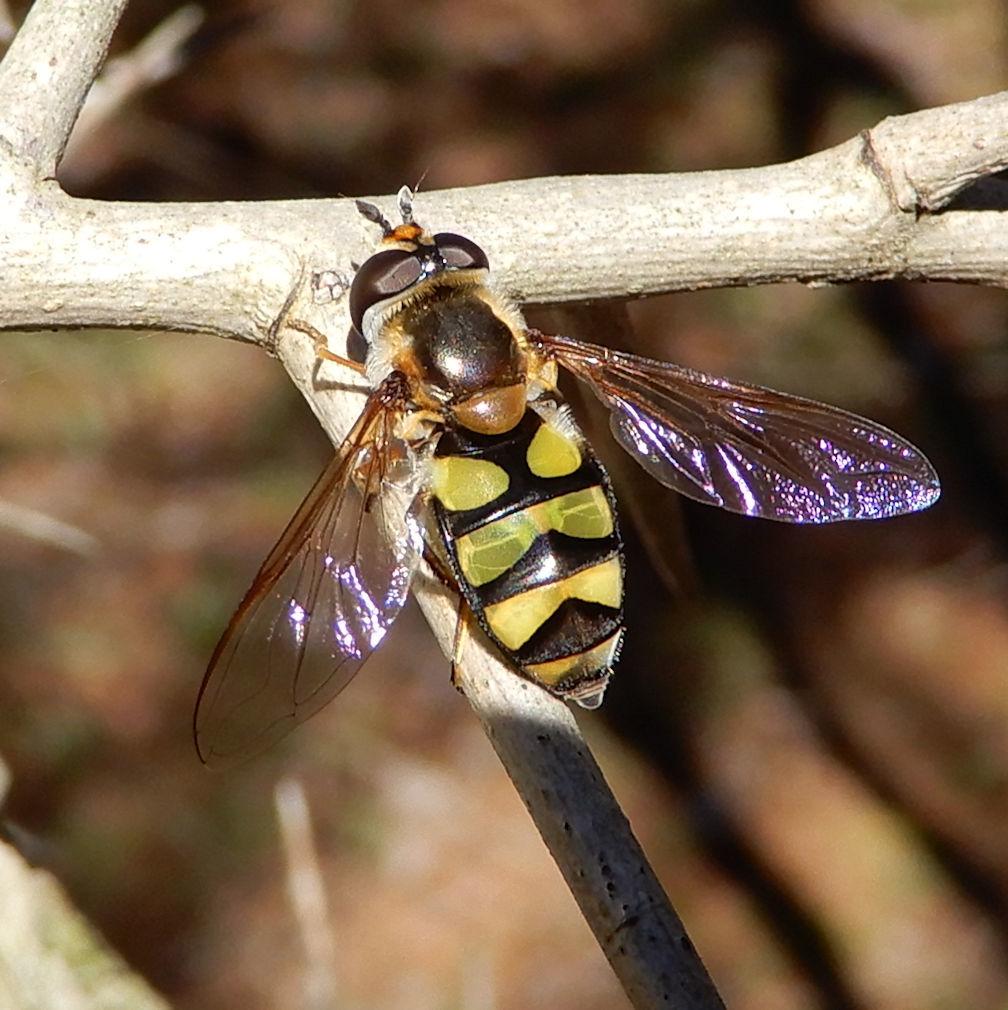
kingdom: Animalia
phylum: Arthropoda
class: Insecta
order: Diptera
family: Syrphidae
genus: Didea
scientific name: Didea fuscipes
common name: Undivided lucent
